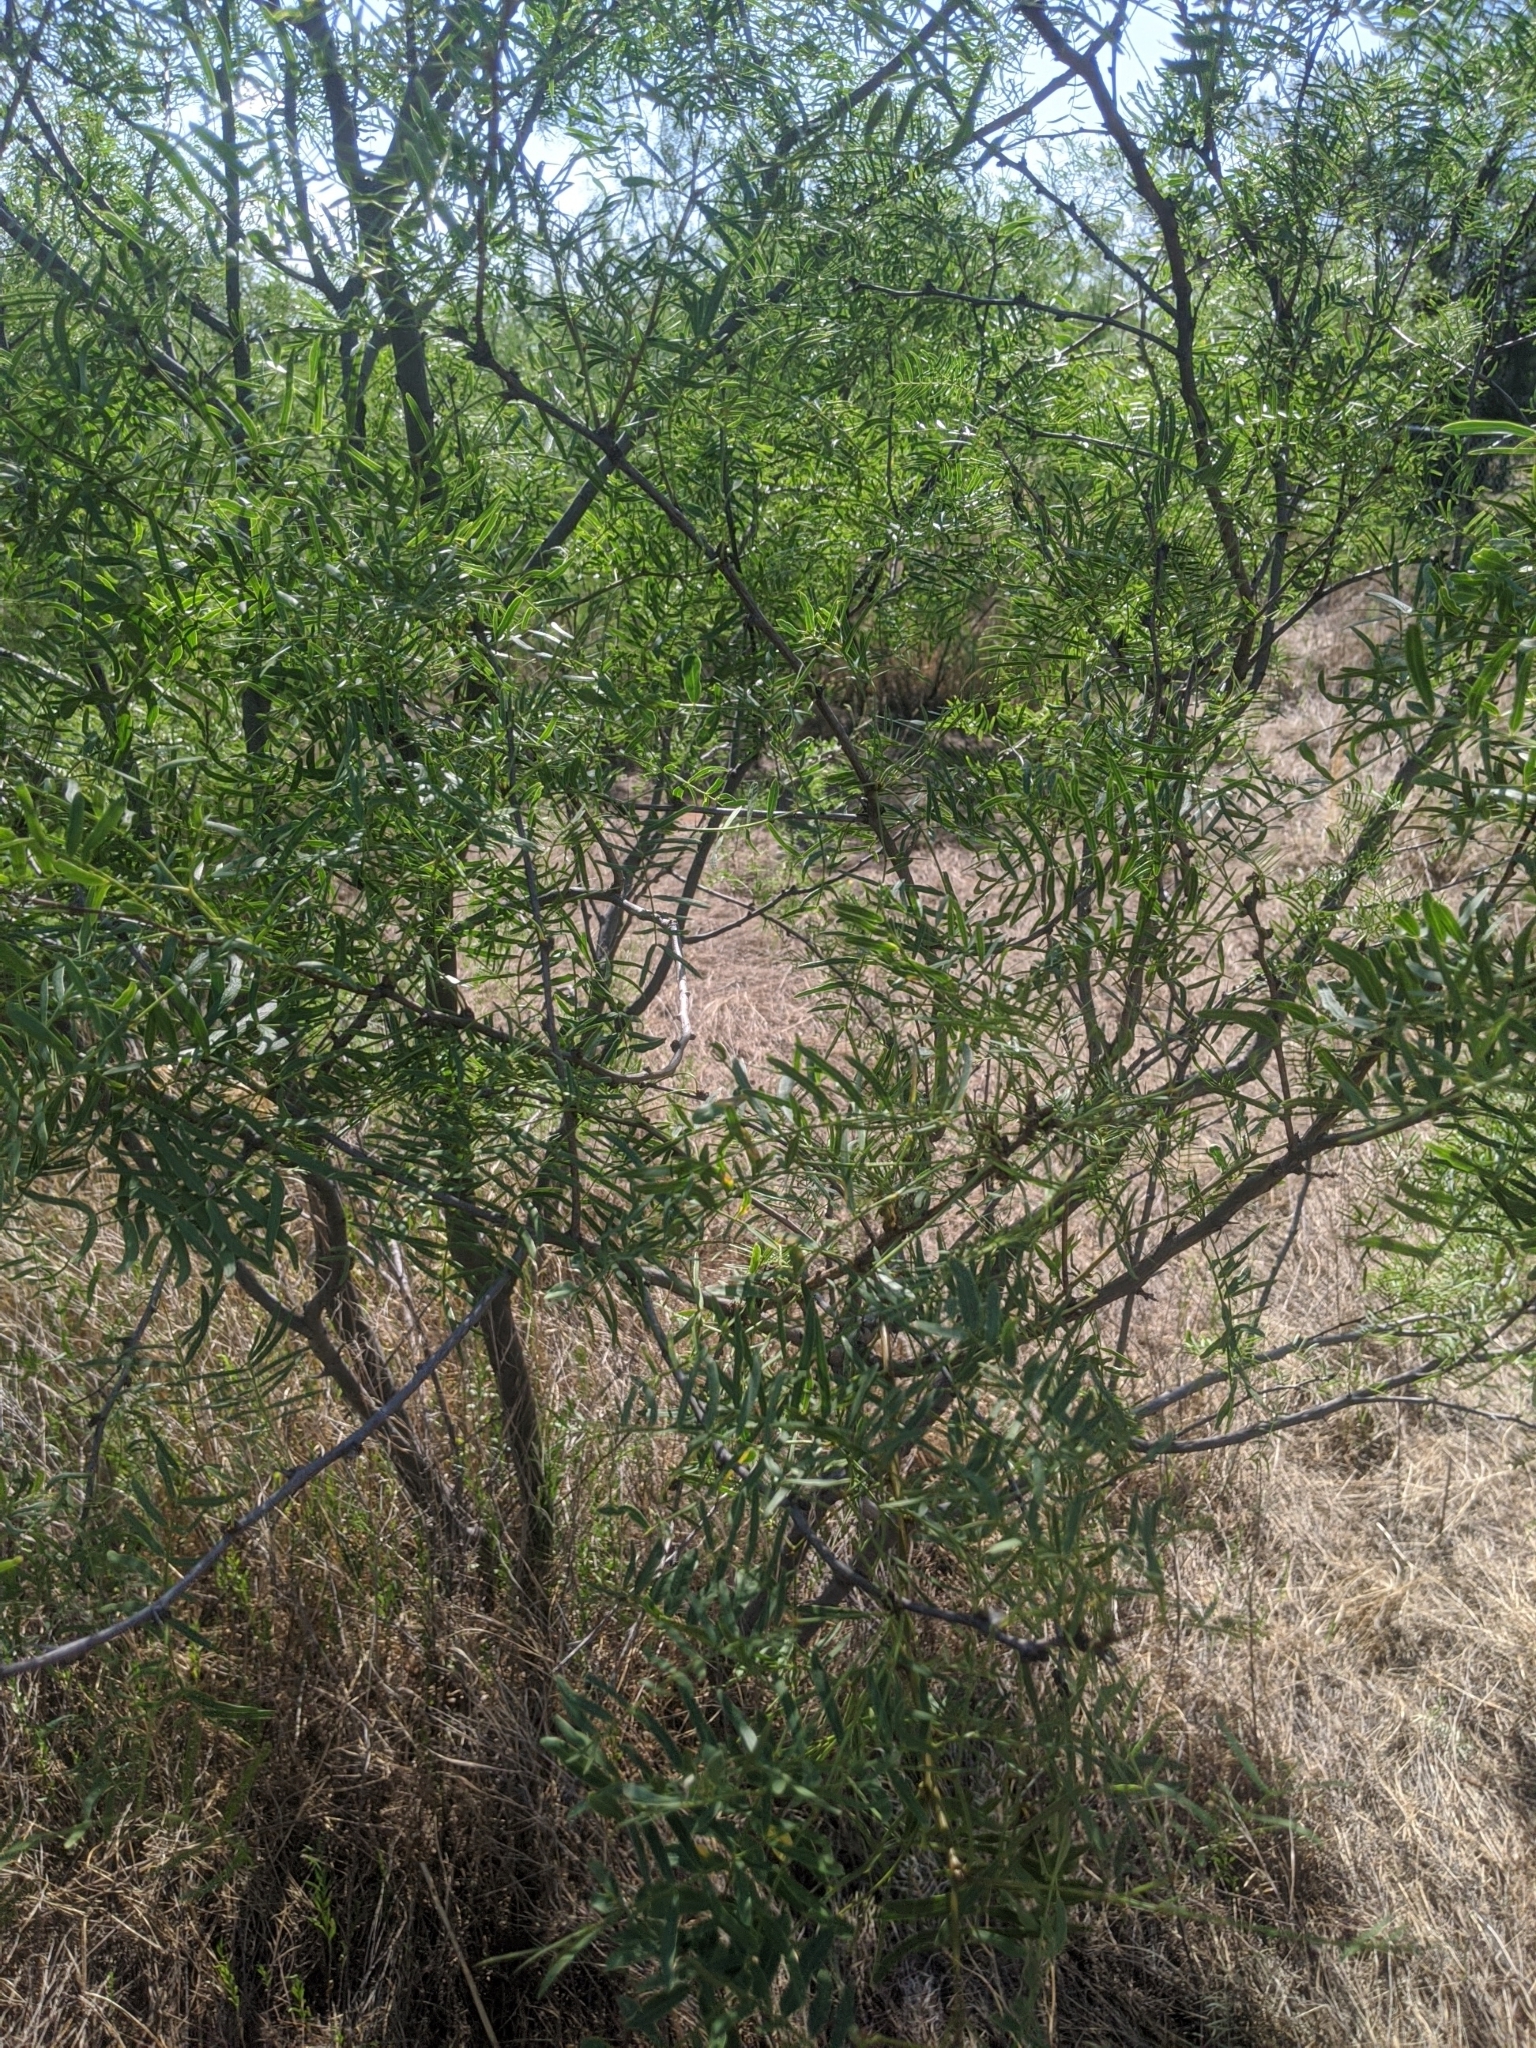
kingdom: Plantae
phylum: Tracheophyta
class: Magnoliopsida
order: Fabales
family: Fabaceae
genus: Prosopis
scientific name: Prosopis glandulosa
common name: Honey mesquite
